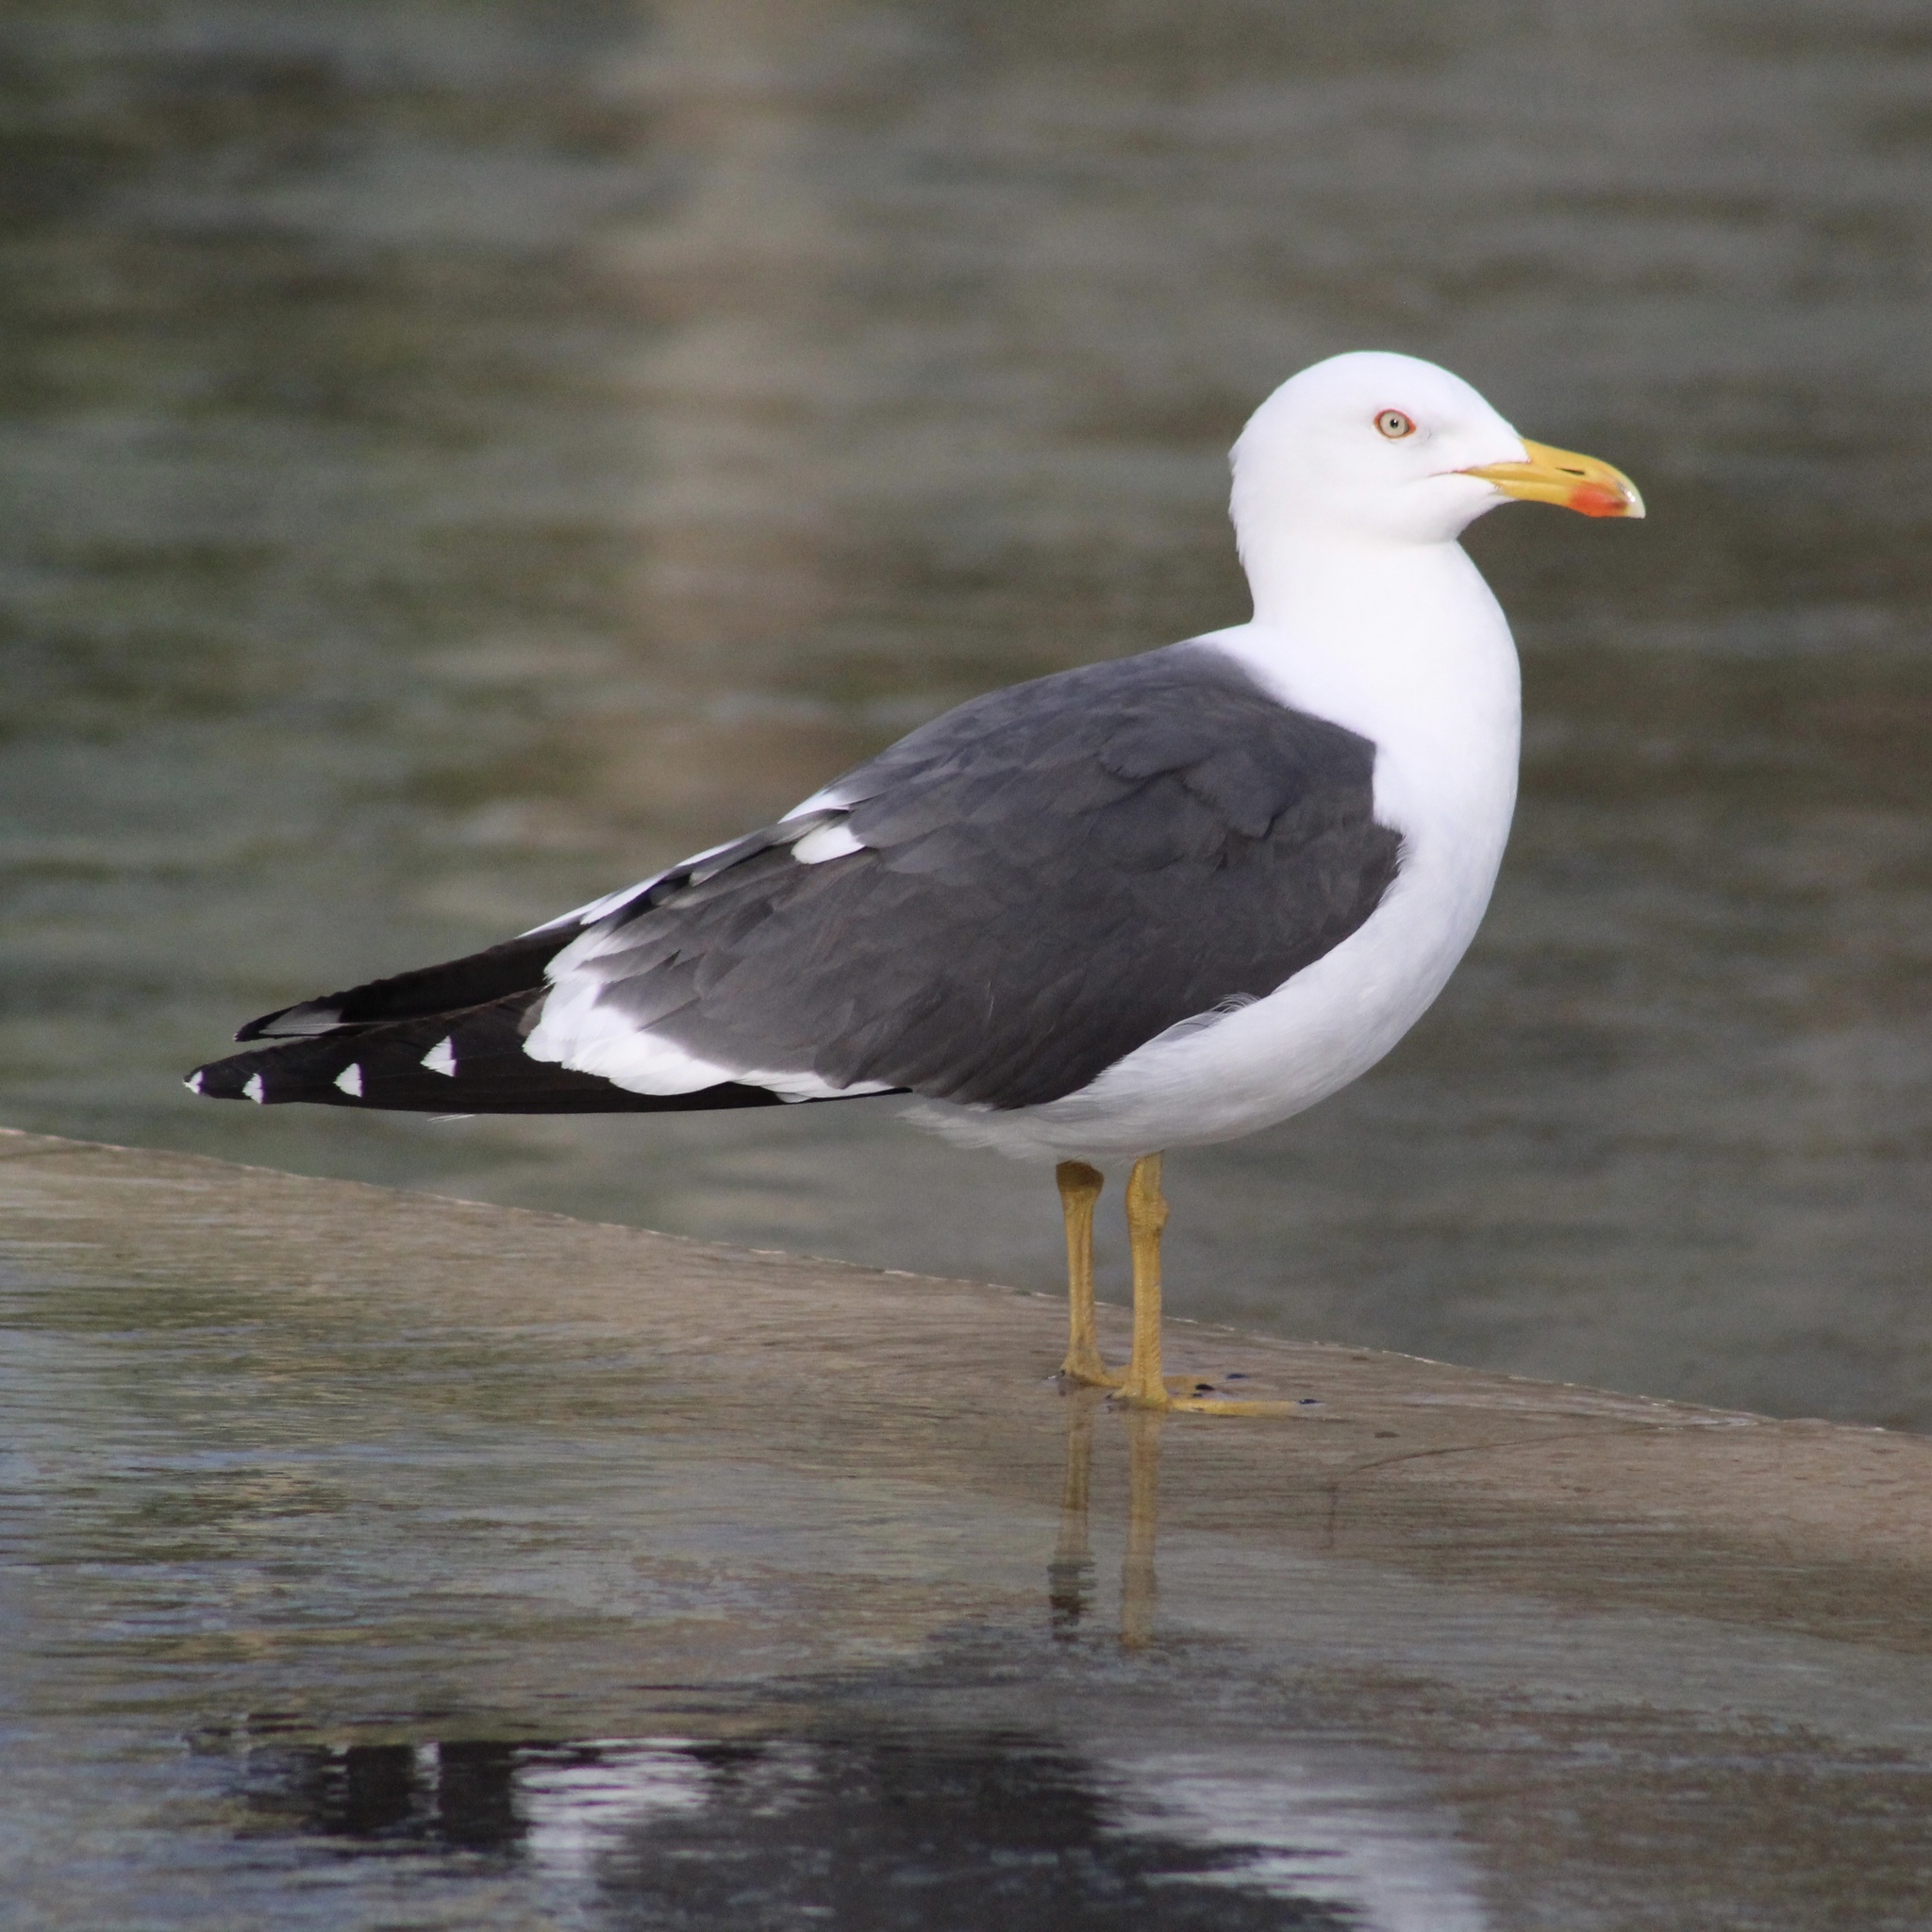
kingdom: Animalia
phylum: Chordata
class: Aves
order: Charadriiformes
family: Laridae
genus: Larus
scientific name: Larus fuscus
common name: Lesser black-backed gull
